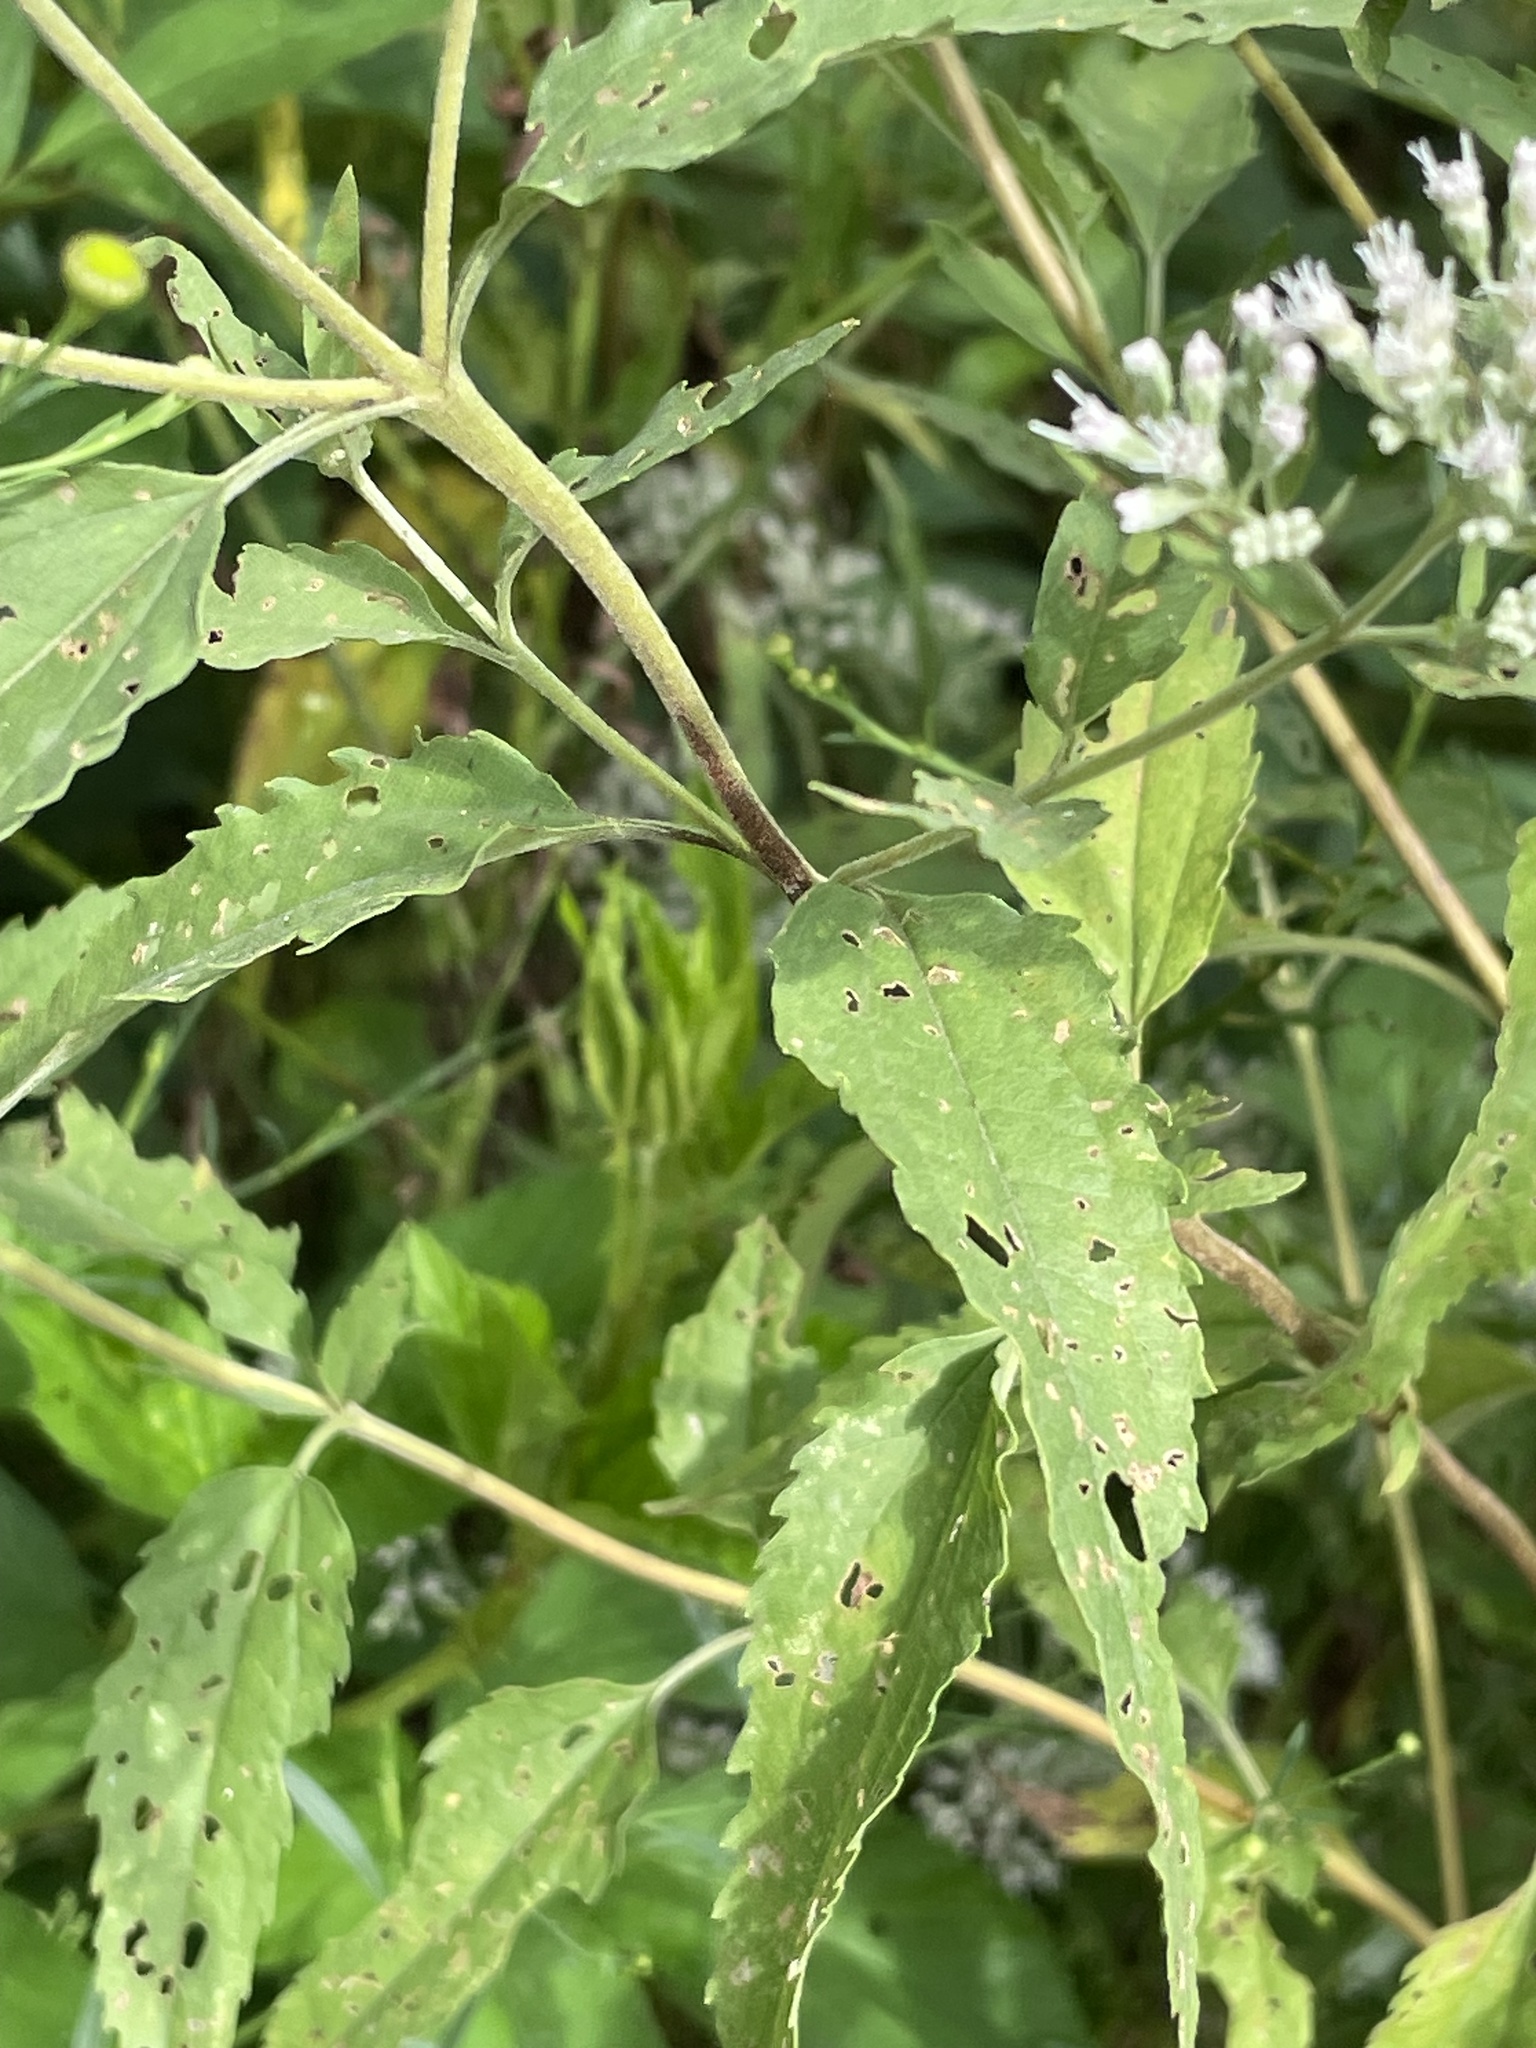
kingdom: Plantae
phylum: Tracheophyta
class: Magnoliopsida
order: Asterales
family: Asteraceae
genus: Eupatorium
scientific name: Eupatorium serotinum
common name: Late boneset
